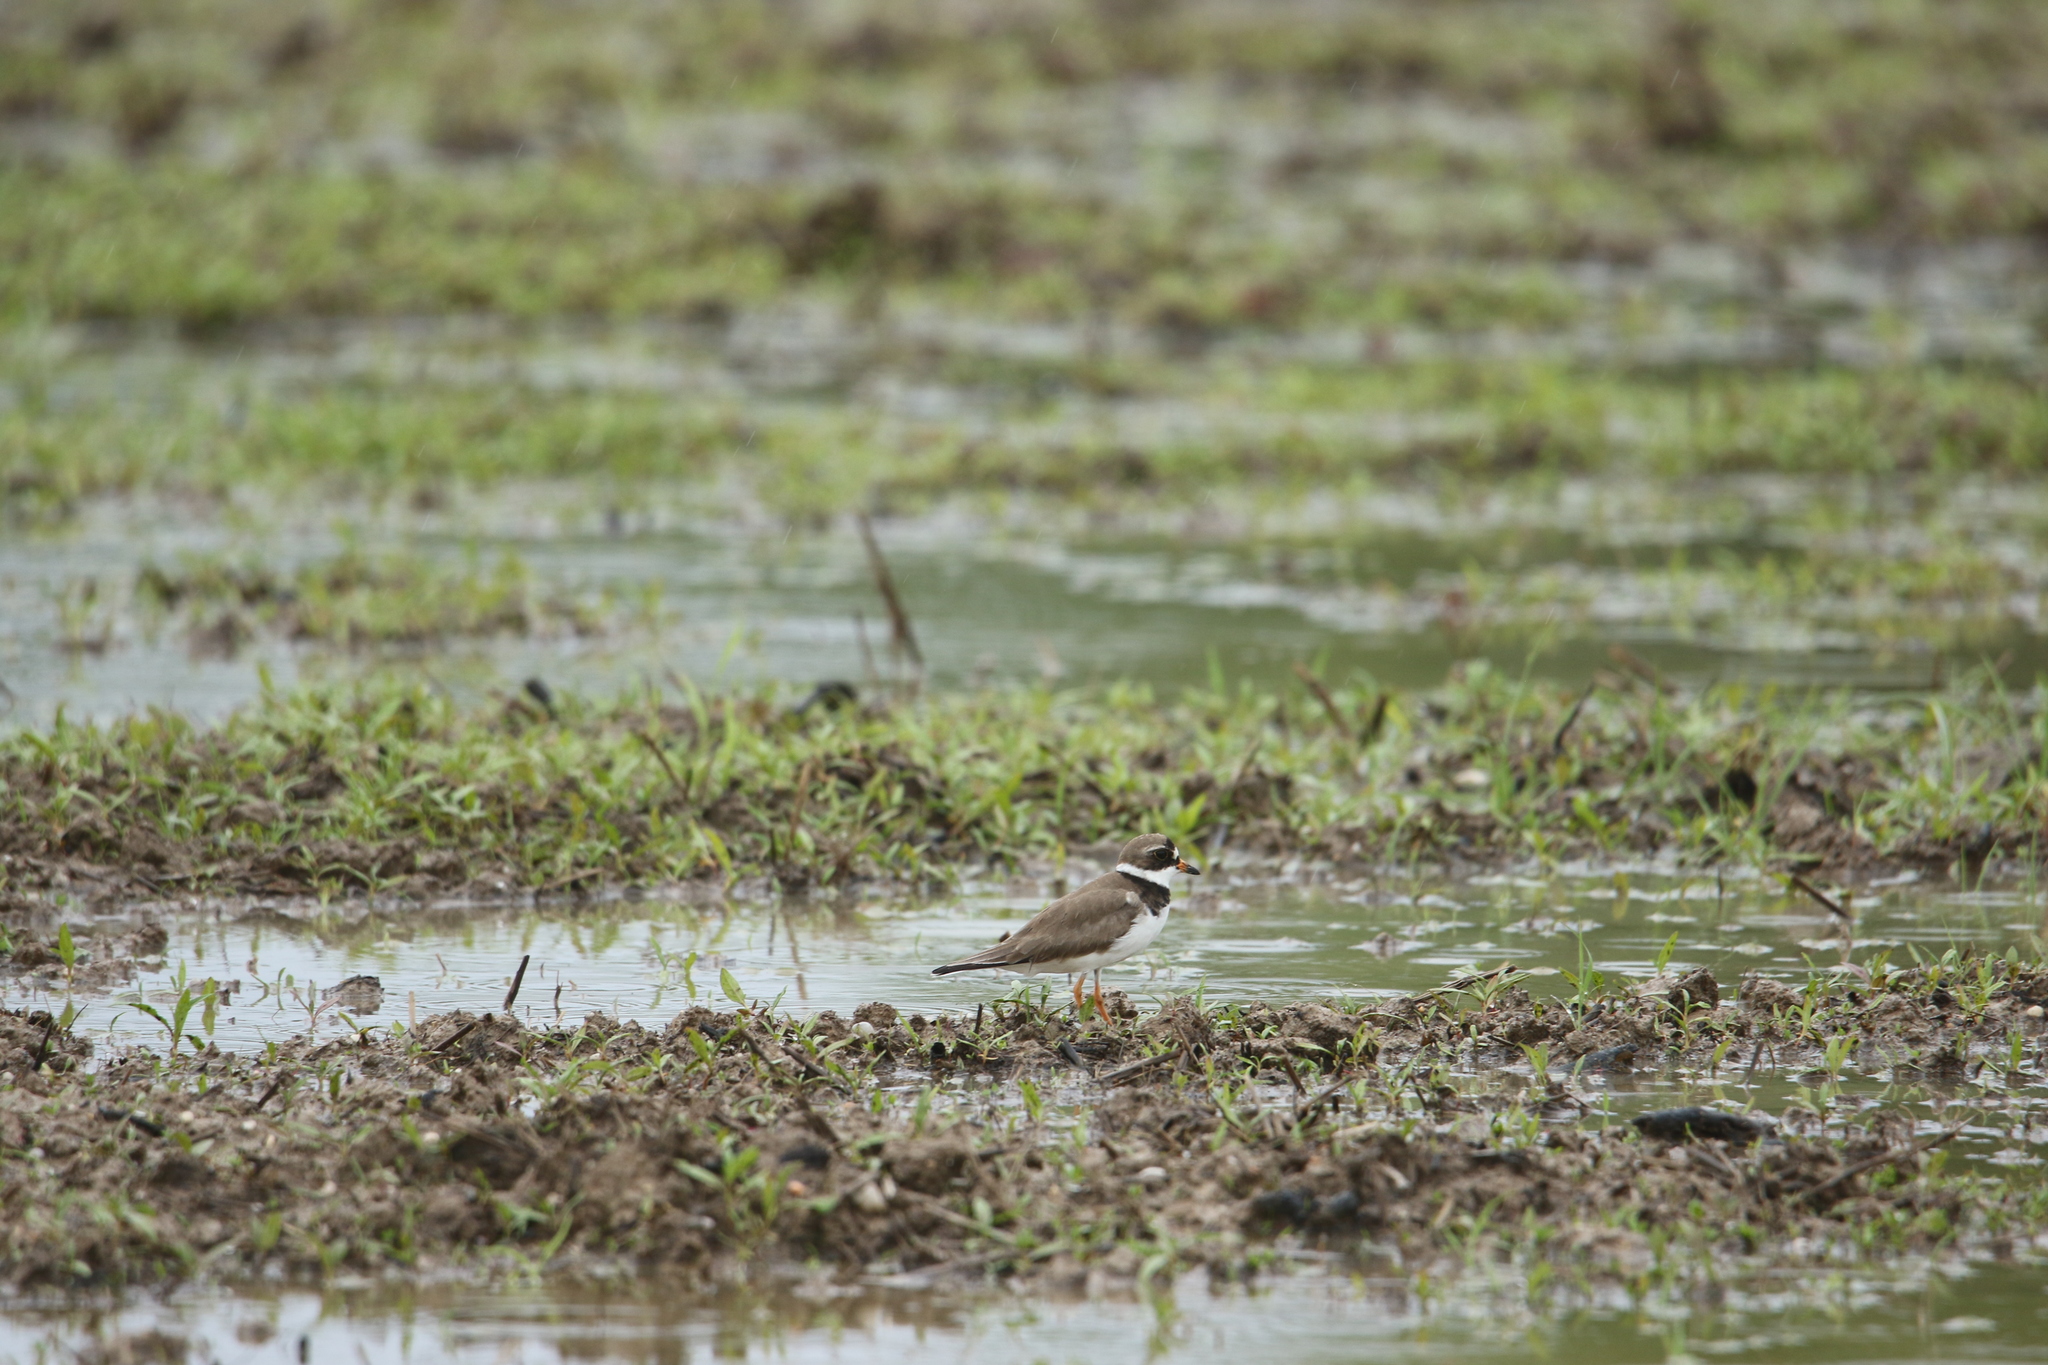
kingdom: Animalia
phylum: Chordata
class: Aves
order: Charadriiformes
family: Charadriidae
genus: Charadrius
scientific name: Charadrius semipalmatus
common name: Semipalmated plover
